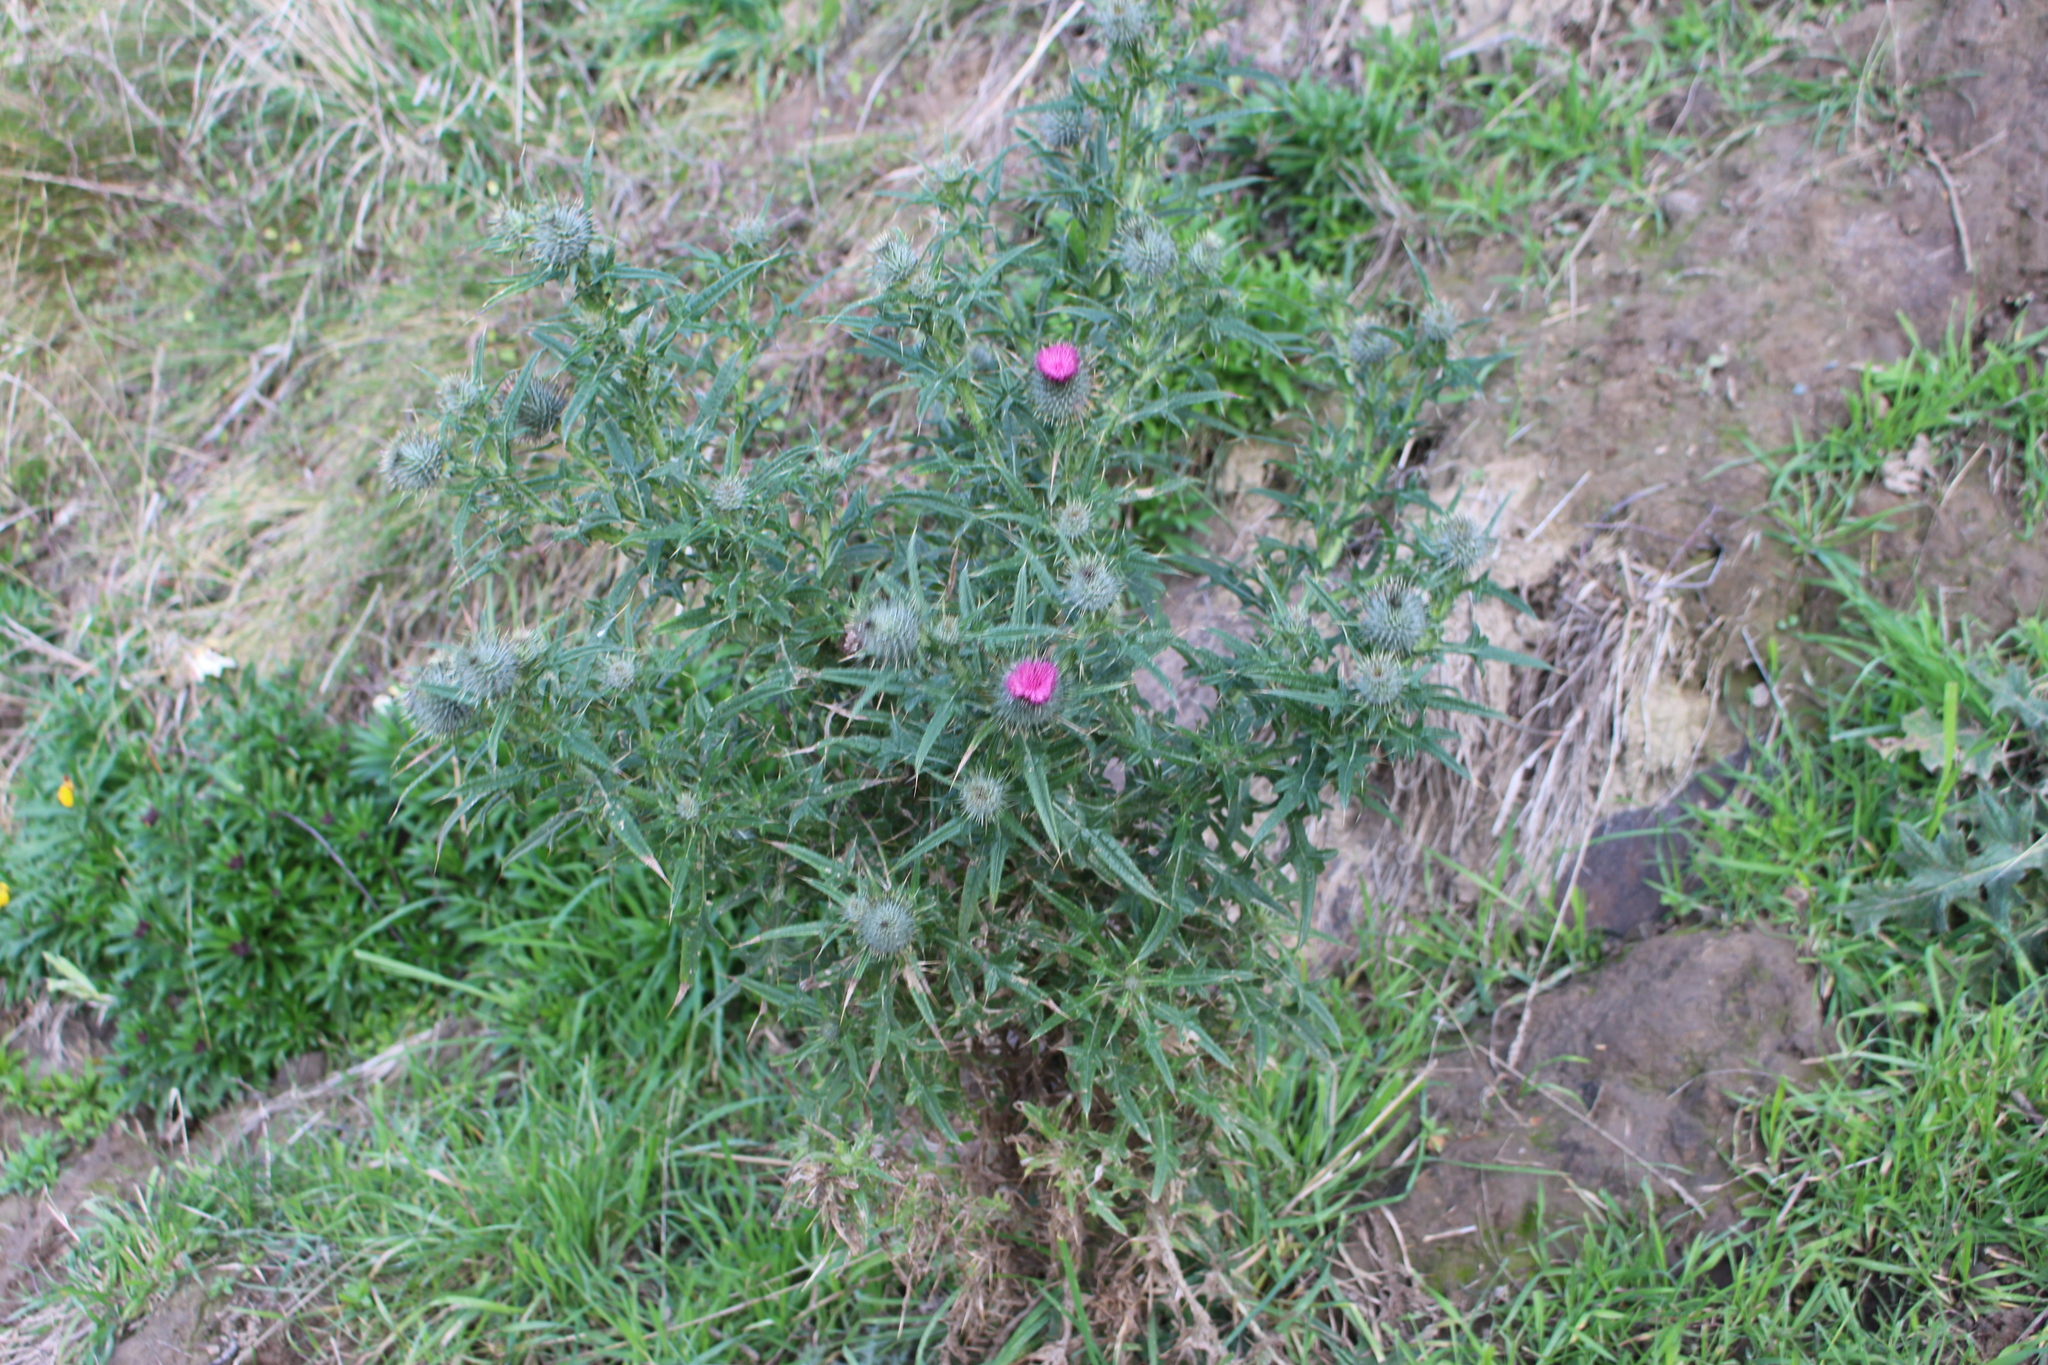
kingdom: Plantae
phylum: Tracheophyta
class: Magnoliopsida
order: Asterales
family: Asteraceae
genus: Cirsium
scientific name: Cirsium vulgare
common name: Bull thistle
